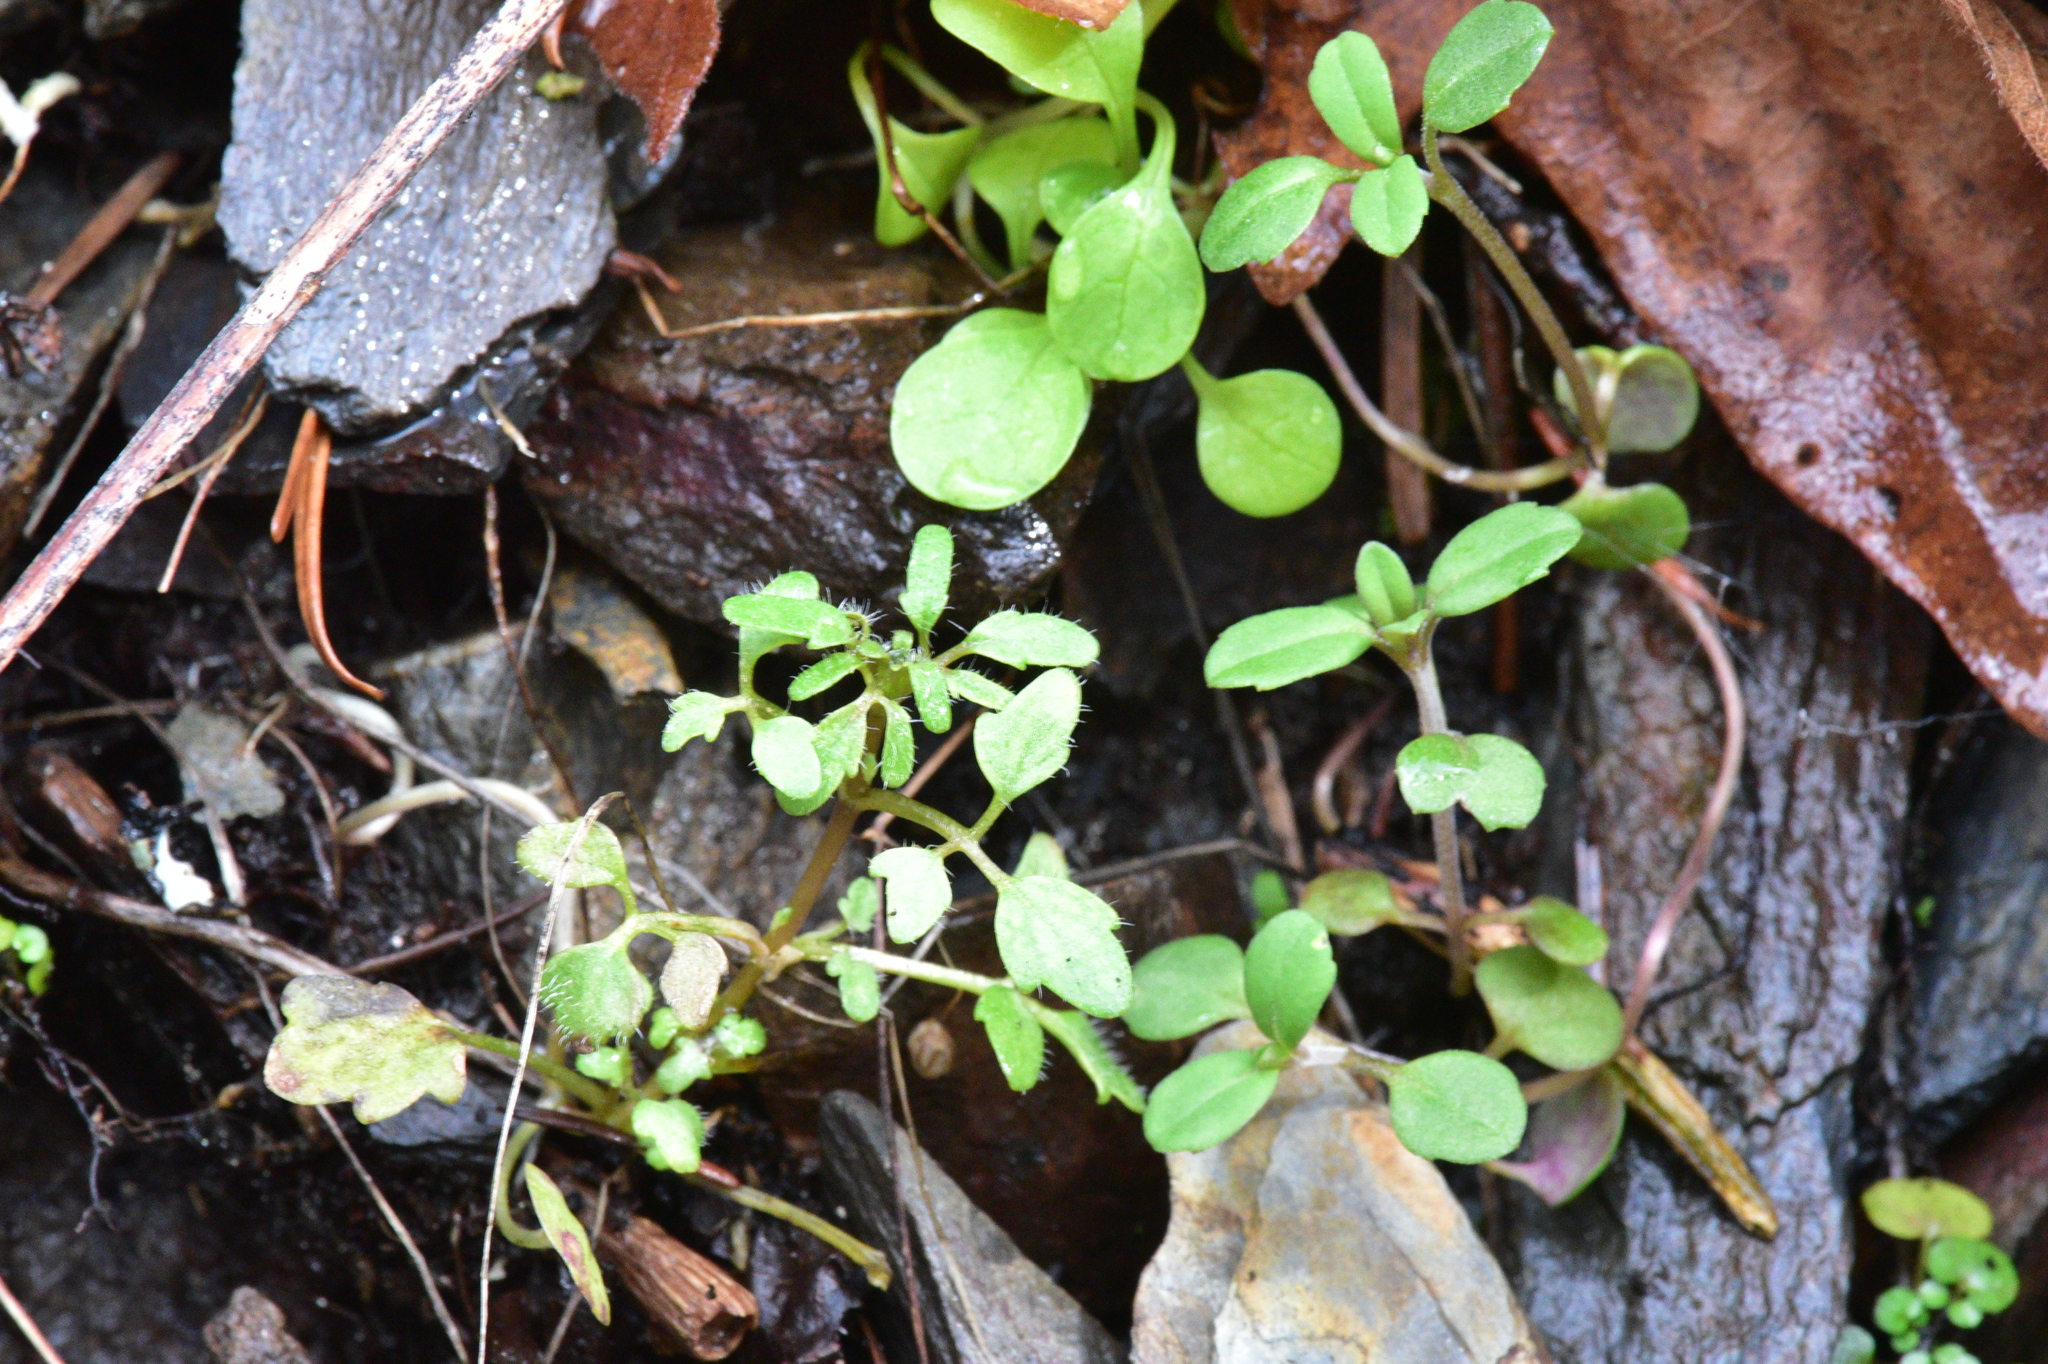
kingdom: Plantae
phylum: Tracheophyta
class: Magnoliopsida
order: Lamiales
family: Plantaginaceae
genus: Tonella
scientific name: Tonella tenella
